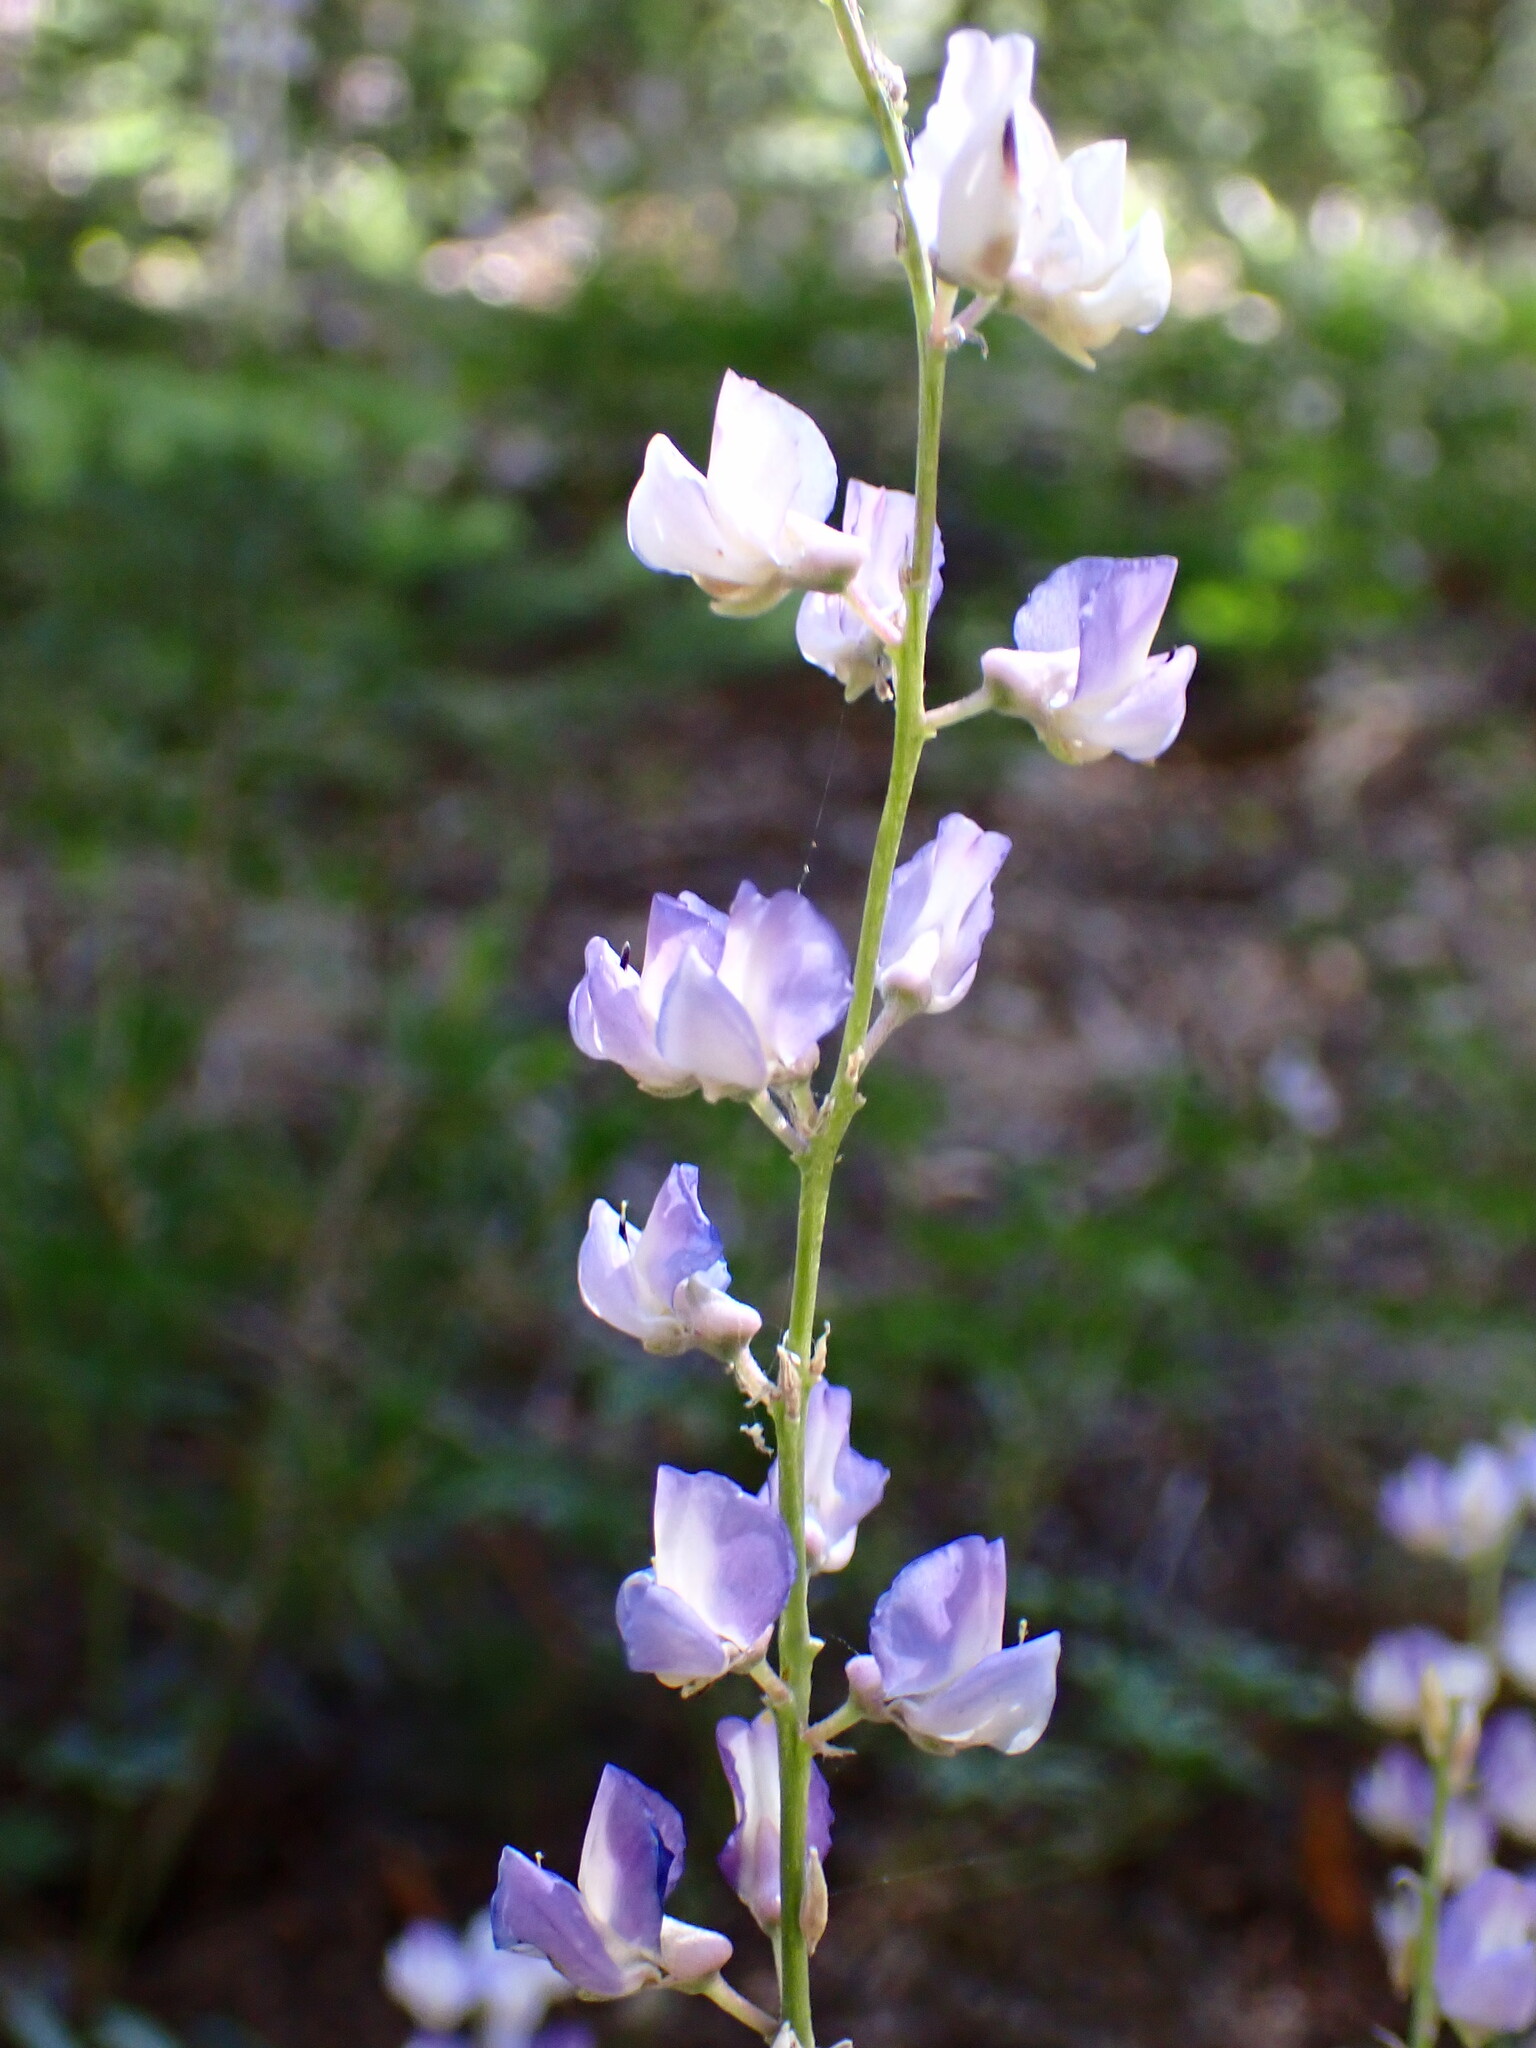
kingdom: Plantae
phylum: Tracheophyta
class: Magnoliopsida
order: Fabales
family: Fabaceae
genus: Lupinus
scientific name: Lupinus arbustus
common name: Montana lupine
